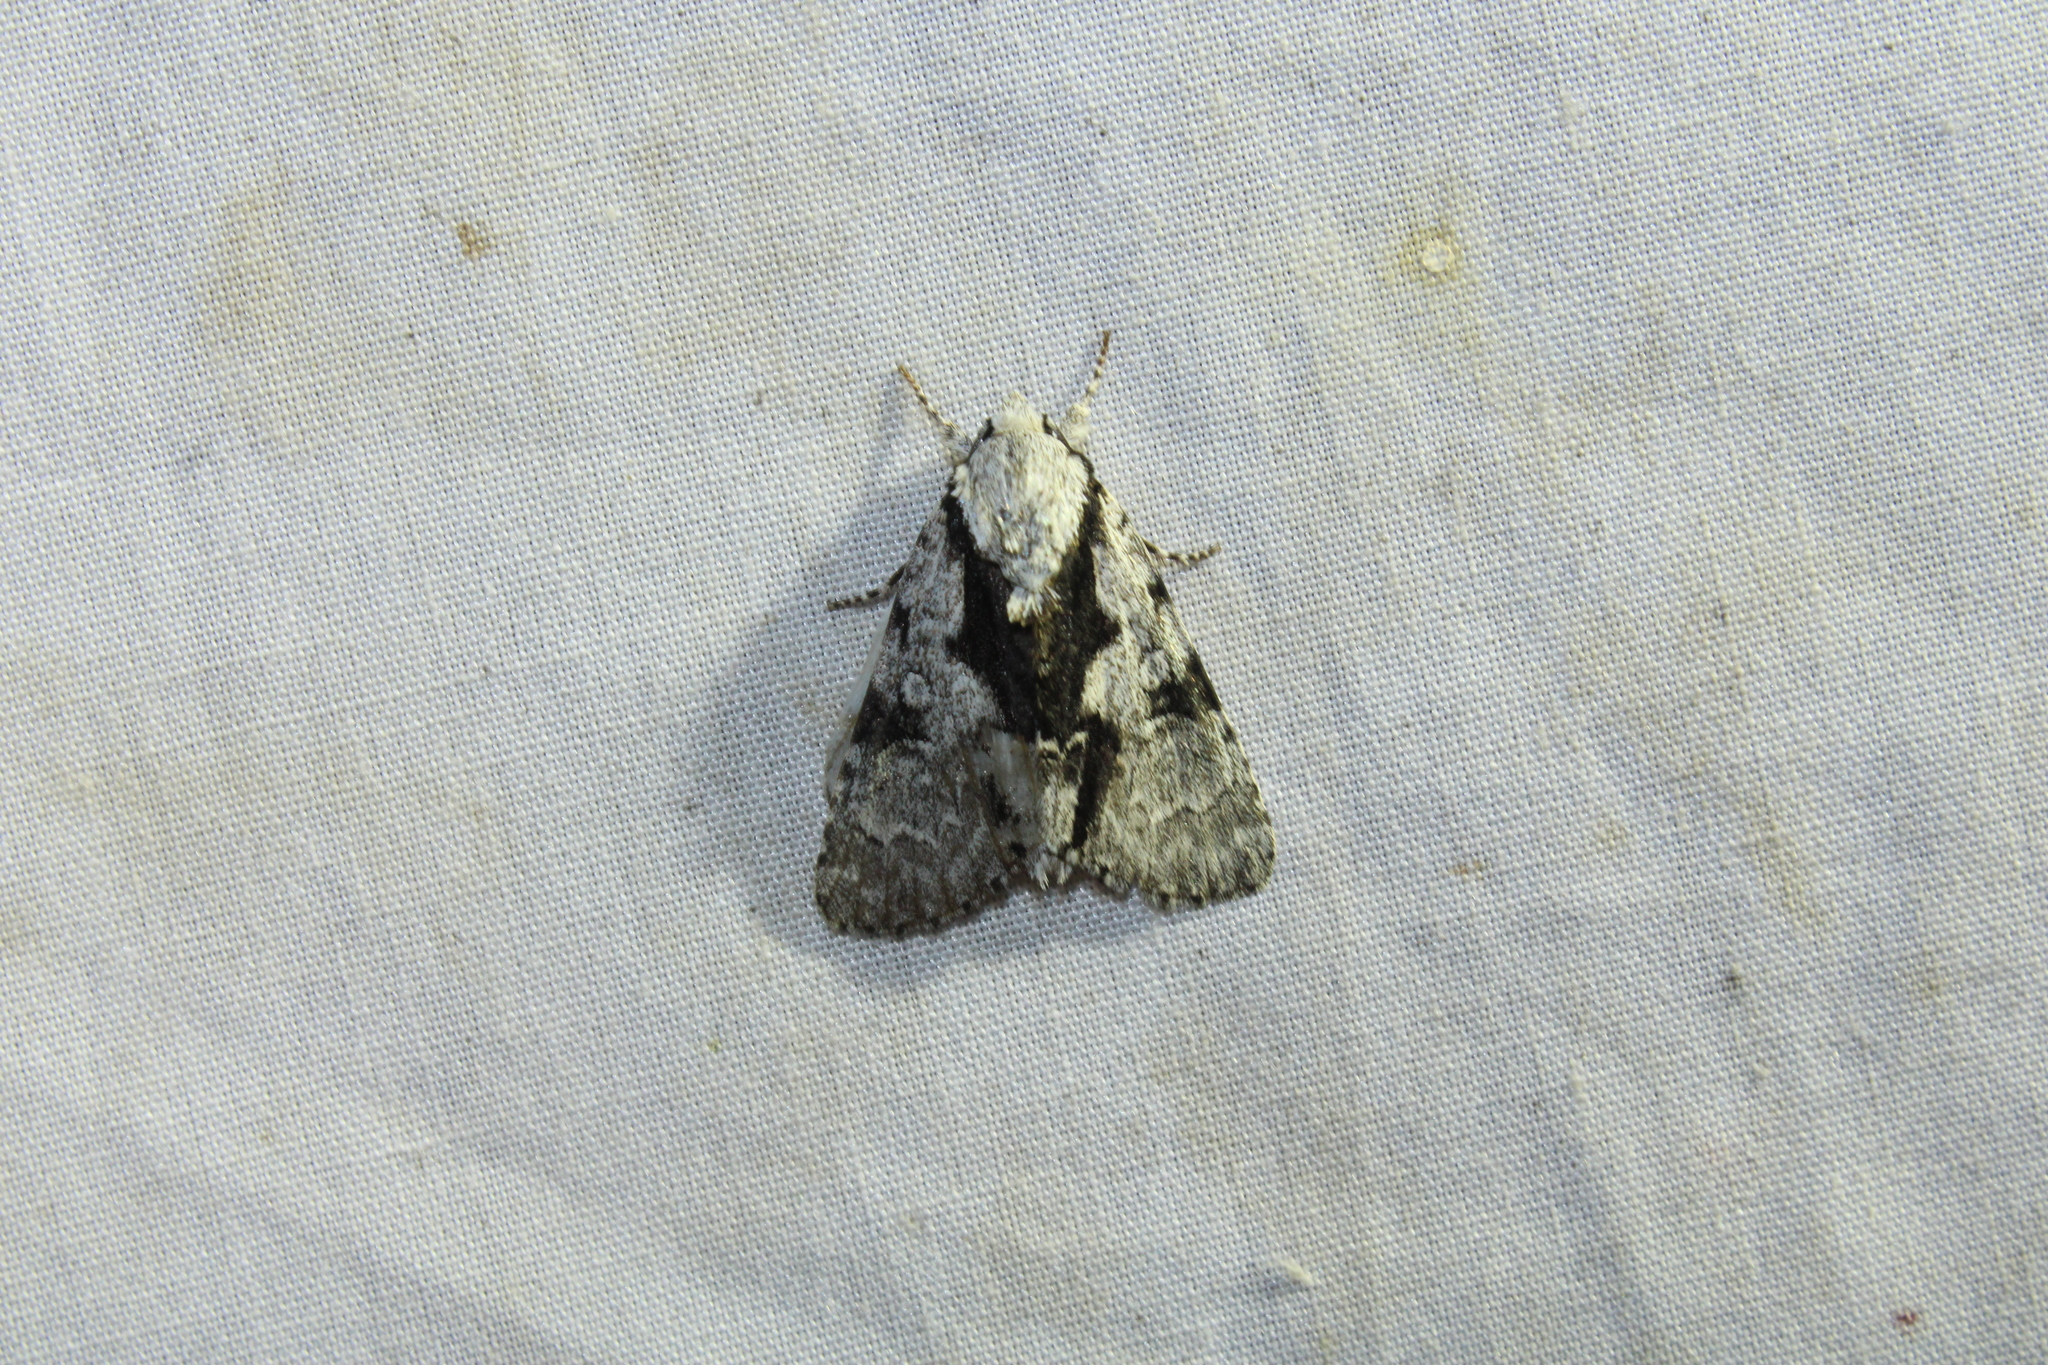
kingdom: Animalia
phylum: Arthropoda
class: Insecta
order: Lepidoptera
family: Noctuidae
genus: Acronicta
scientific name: Acronicta funeralis
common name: Funerary dagger
